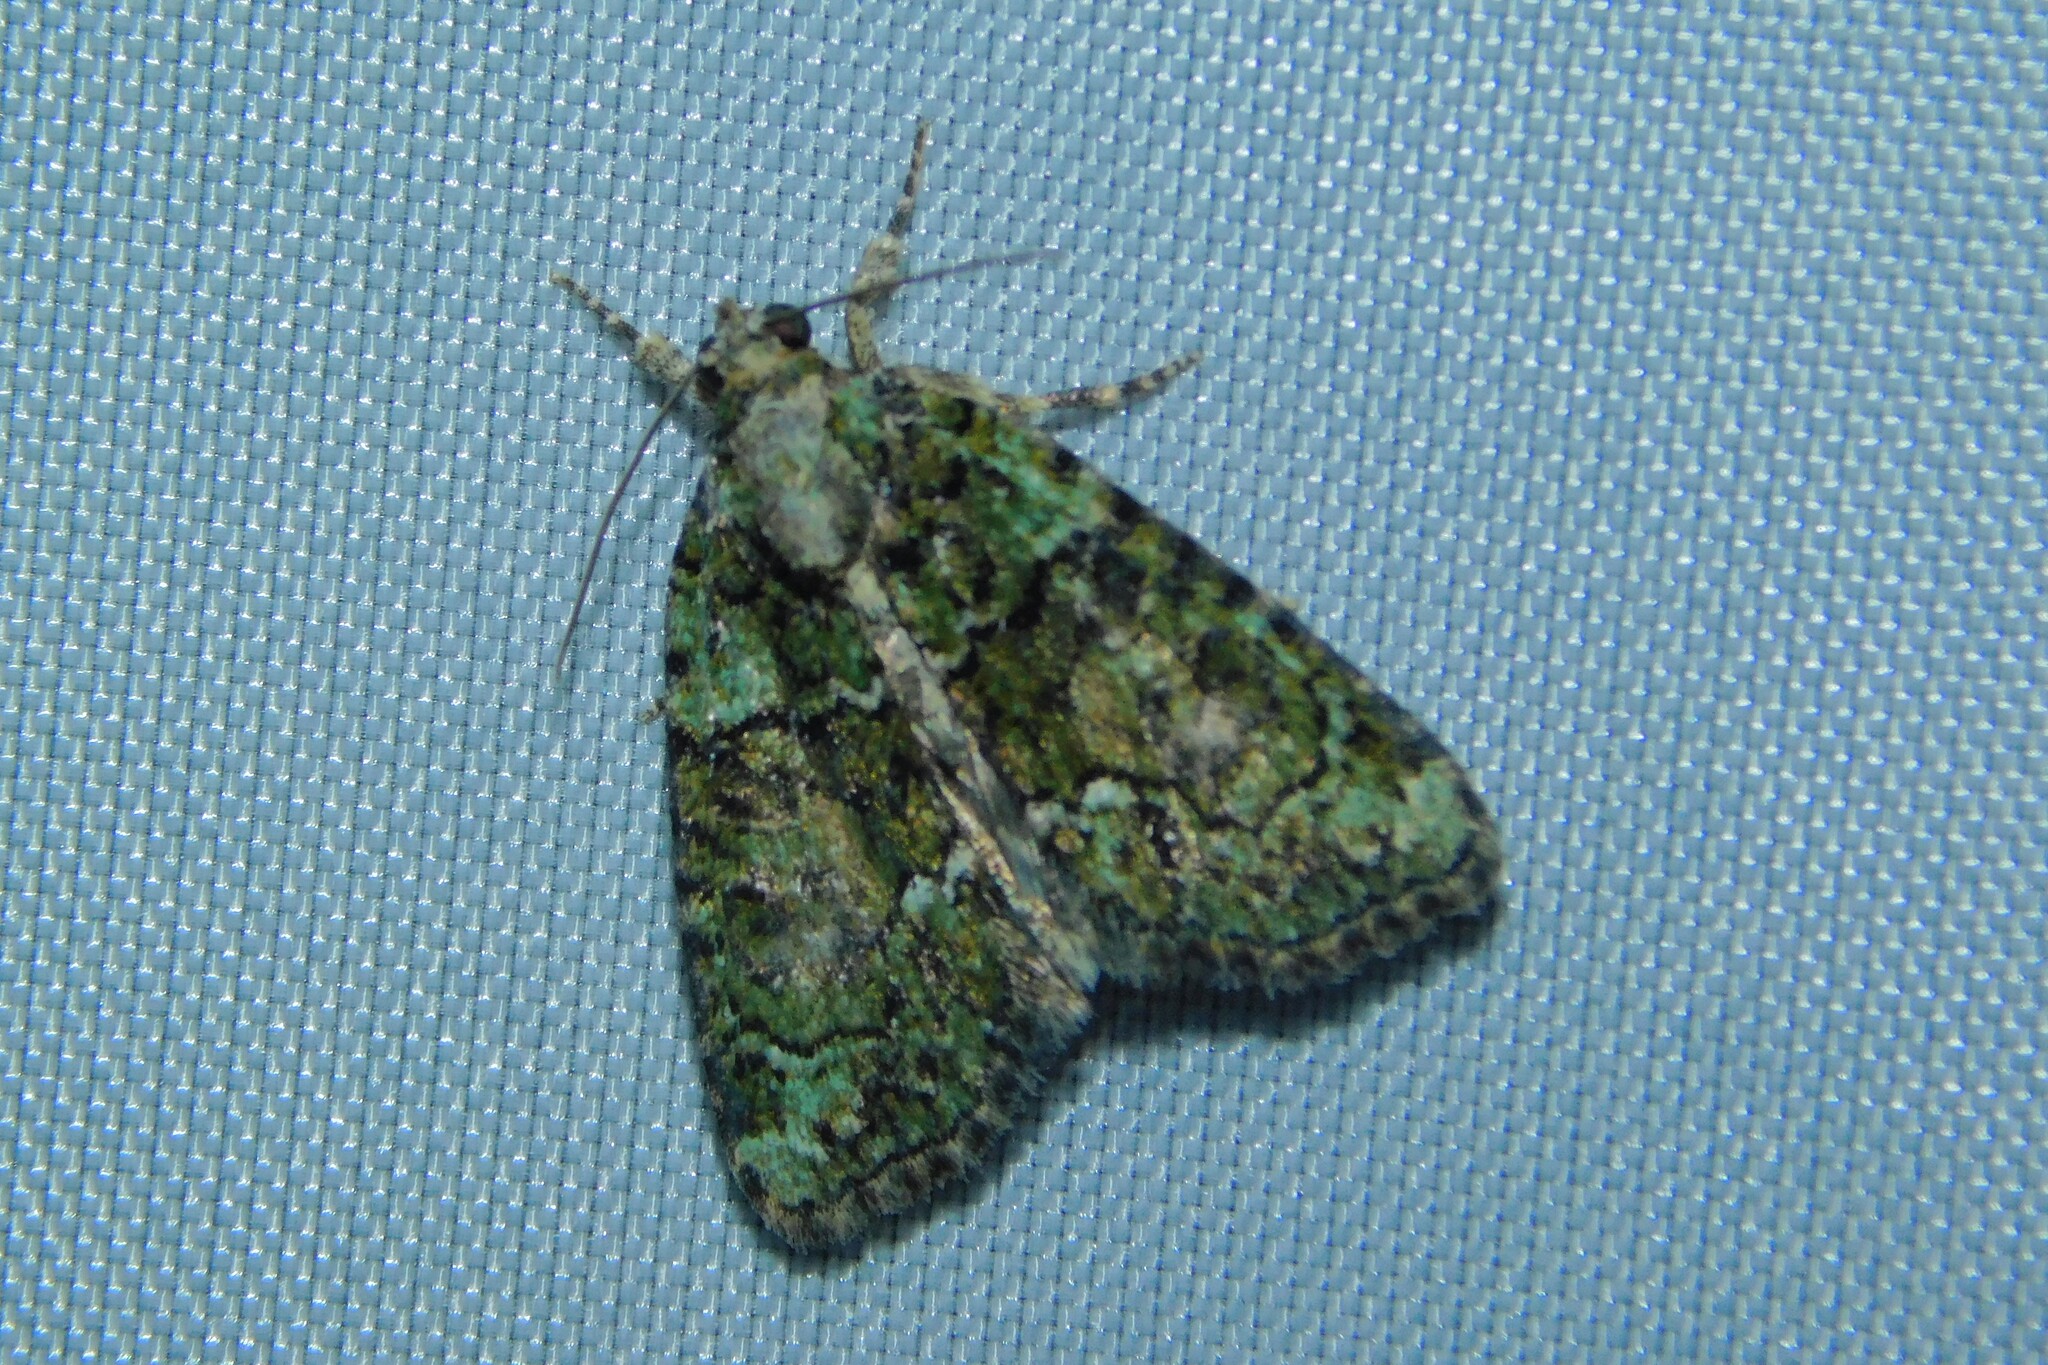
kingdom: Animalia
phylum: Arthropoda
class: Insecta
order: Lepidoptera
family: Noctuidae
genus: Cryphia
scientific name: Cryphia algae
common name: Tree-lichen beauty
